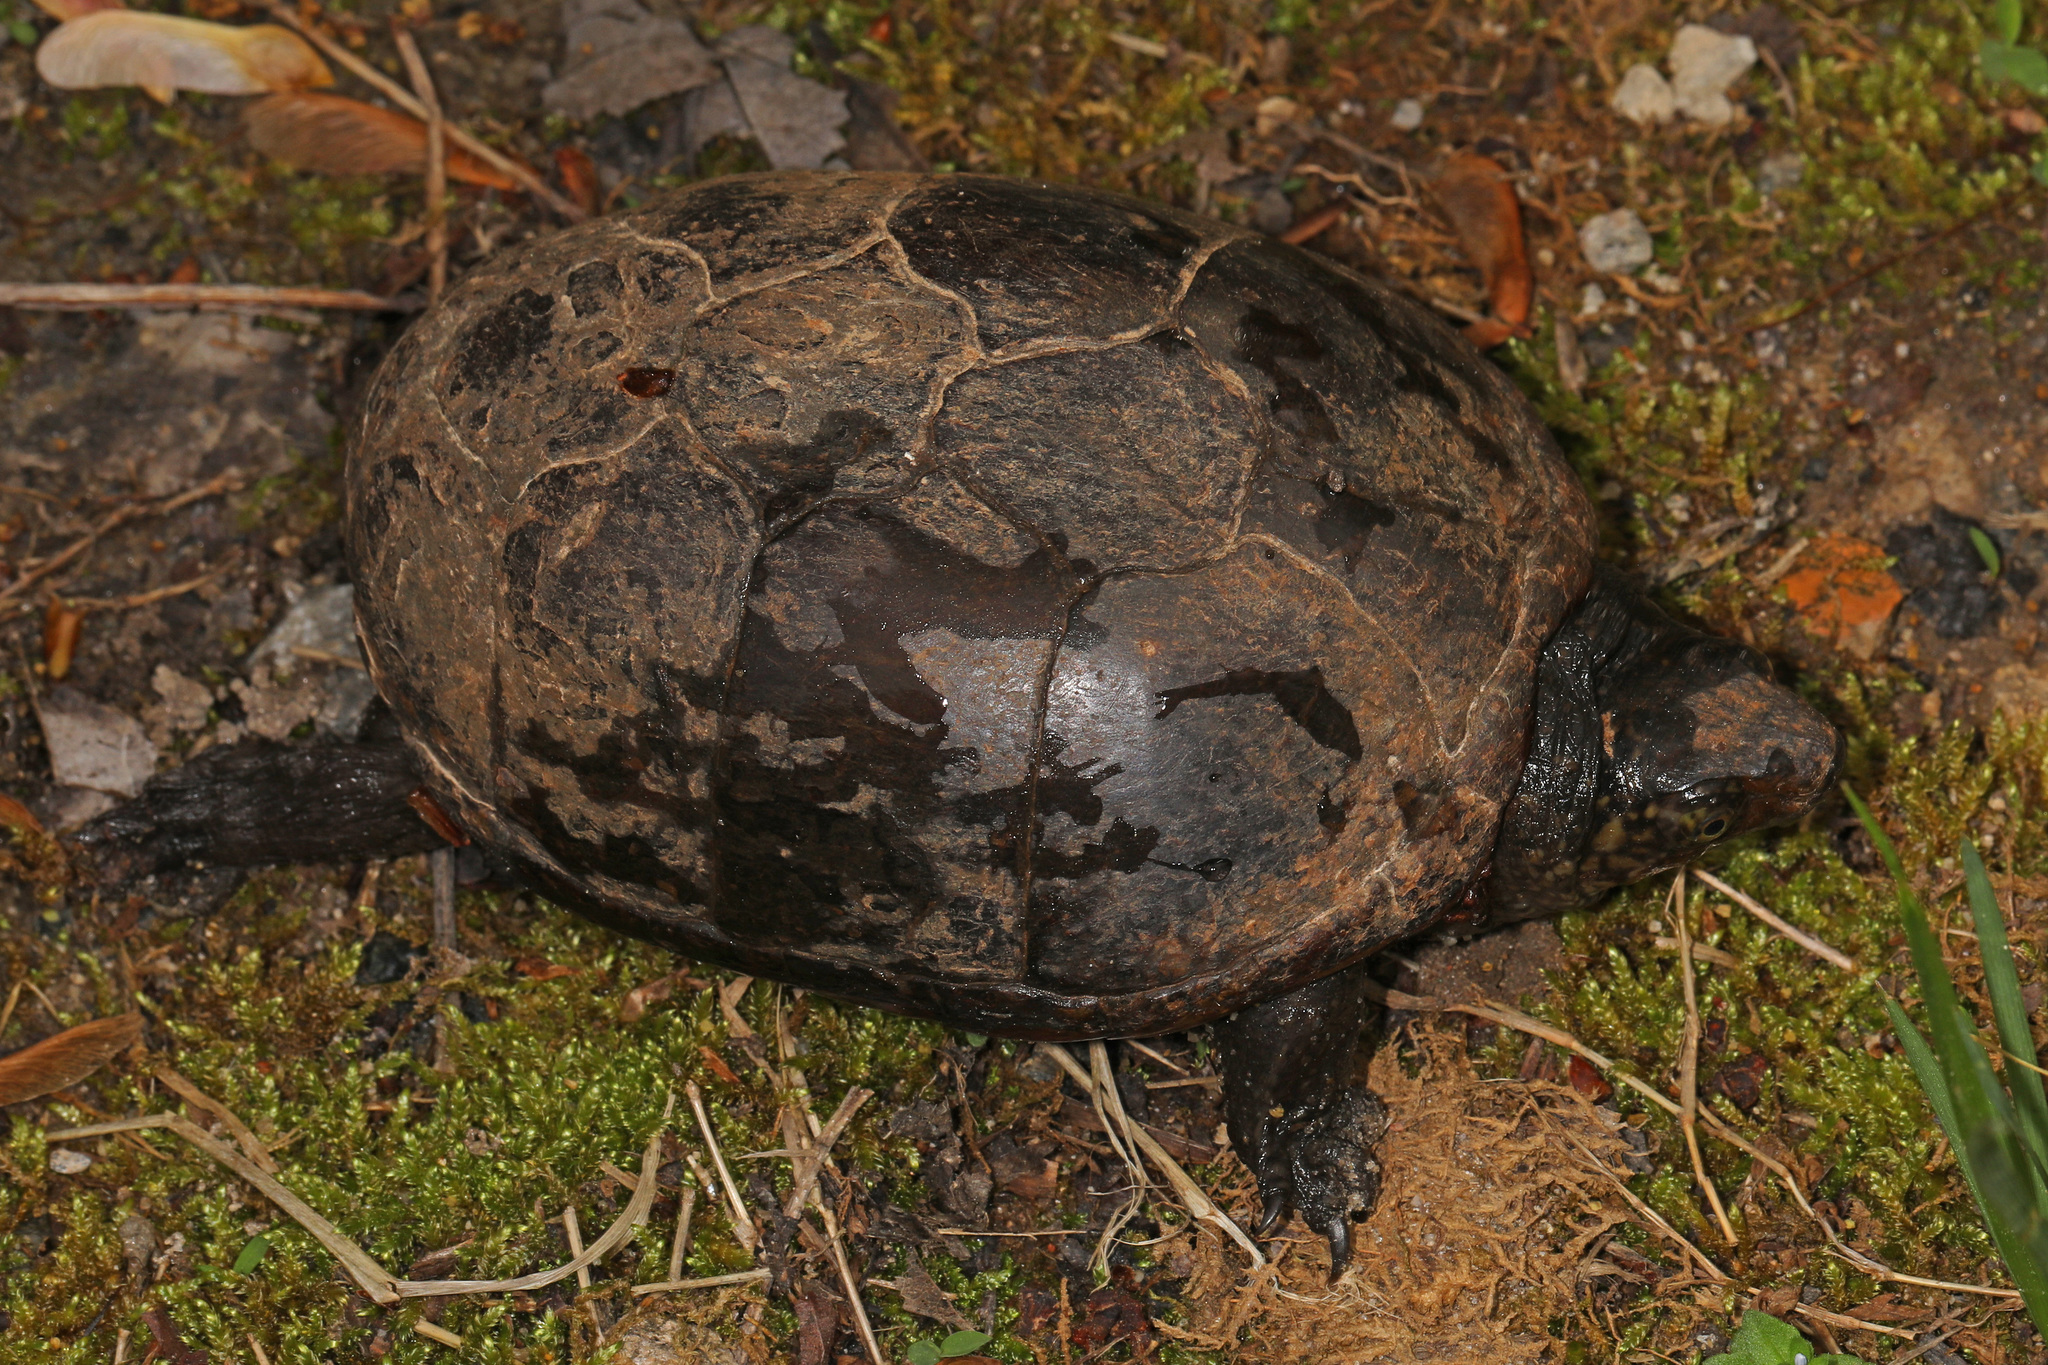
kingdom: Animalia
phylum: Chordata
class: Testudines
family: Kinosternidae
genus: Kinosternon
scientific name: Kinosternon subrubrum
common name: Eastern mud turtle
